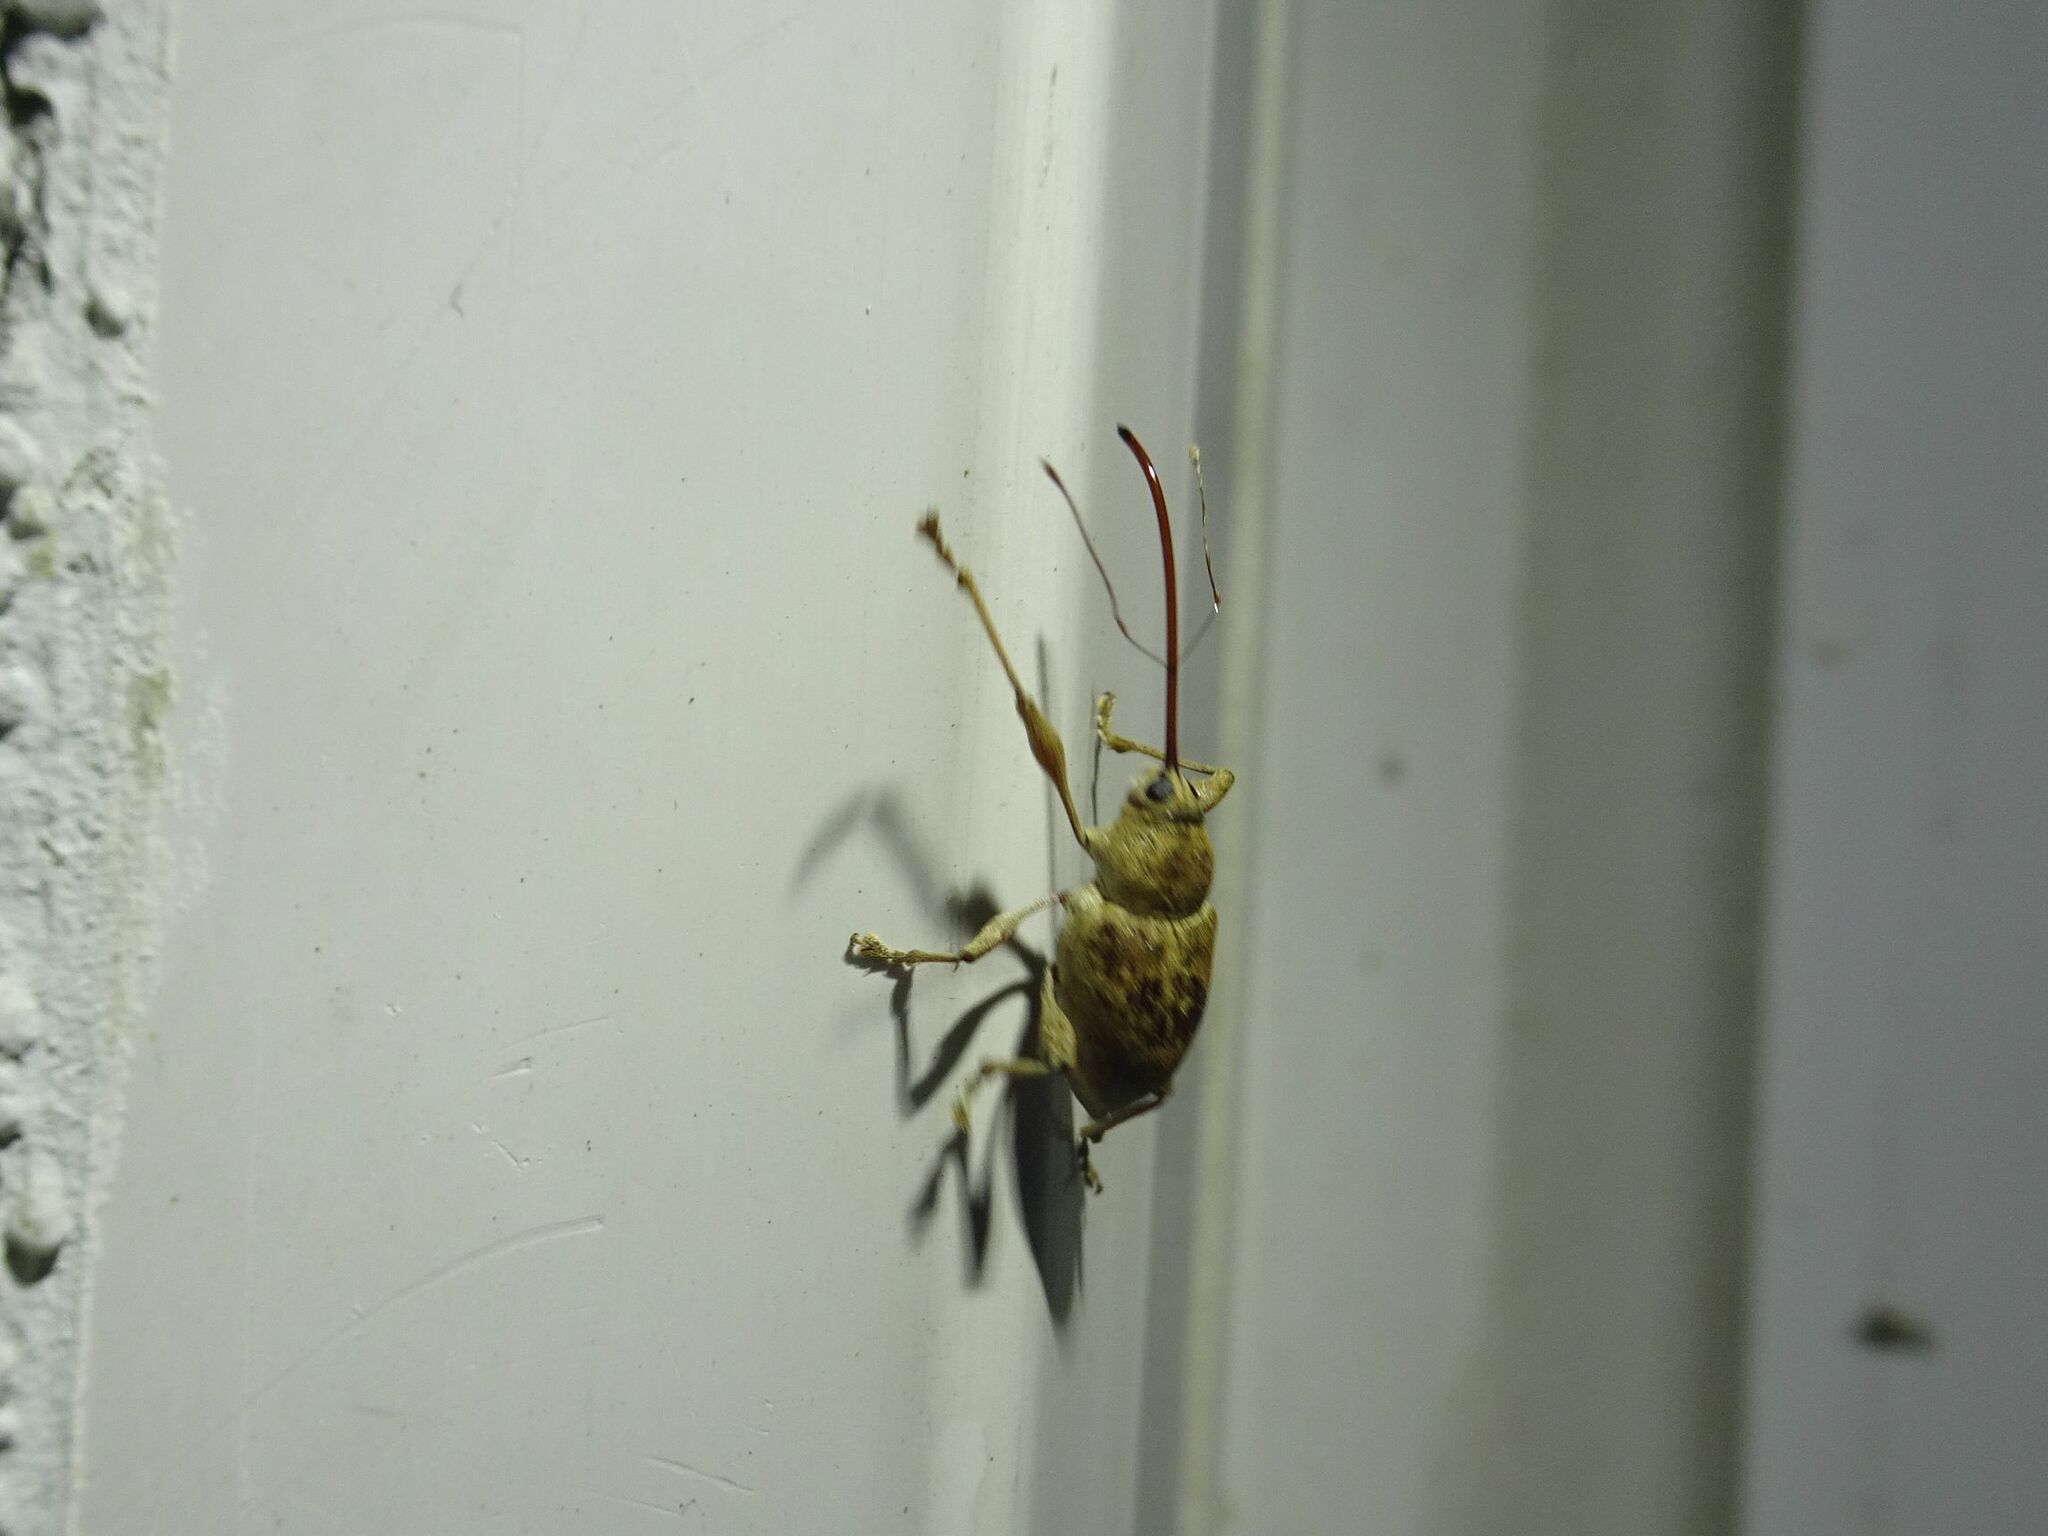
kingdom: Animalia
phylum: Arthropoda
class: Insecta
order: Coleoptera
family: Curculionidae
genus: Curculio
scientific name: Curculio elephas
